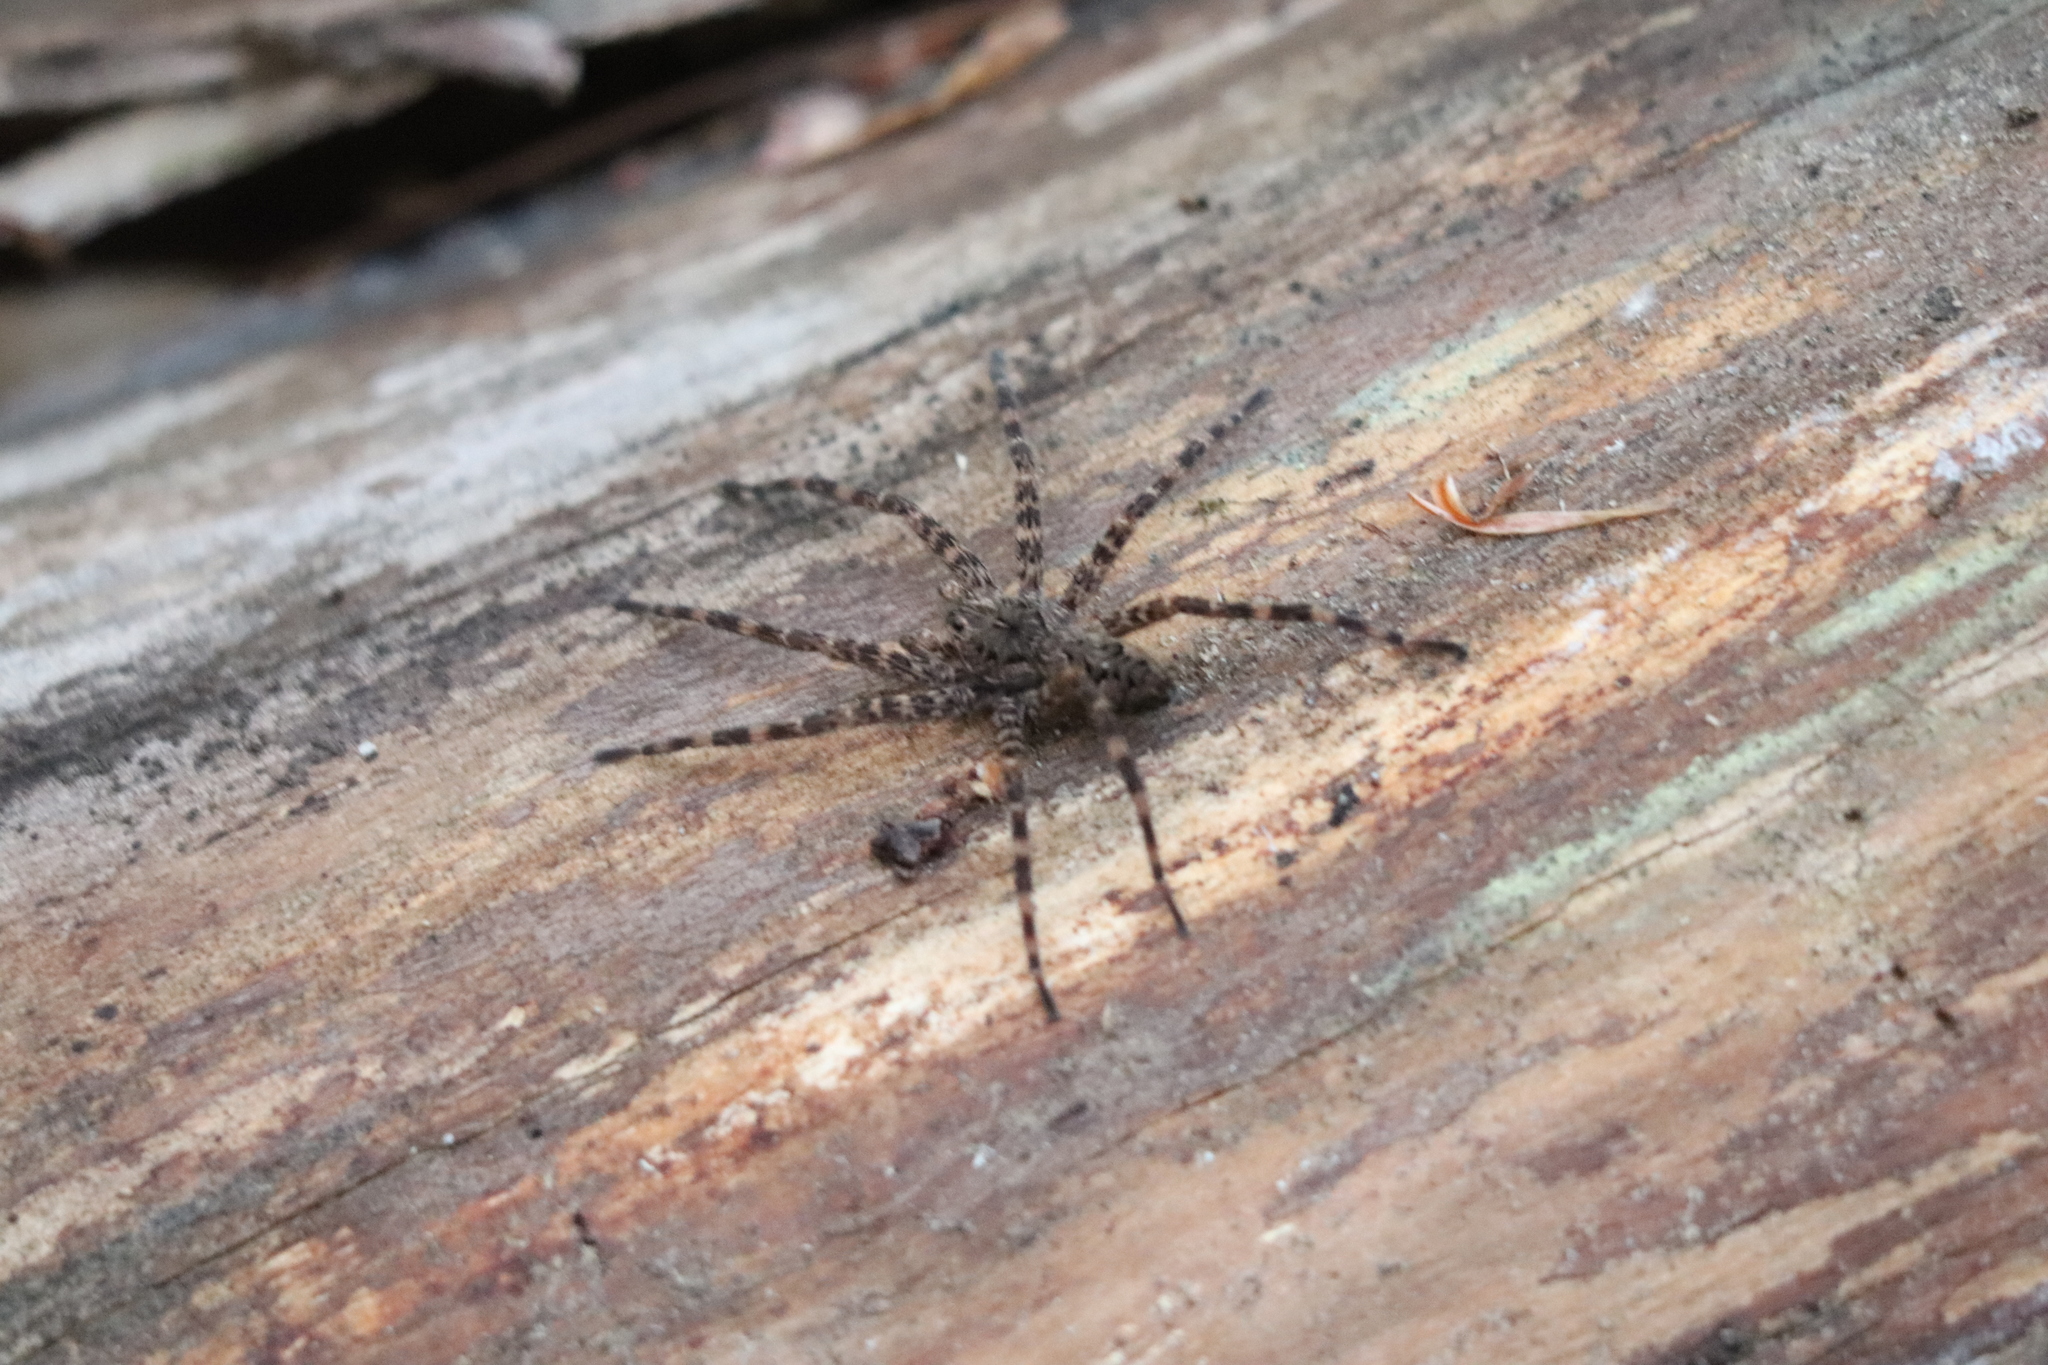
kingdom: Animalia
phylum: Arthropoda
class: Arachnida
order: Araneae
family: Pisauridae
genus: Dolomedes
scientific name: Dolomedes tenebrosus
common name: Dark fishing spider
